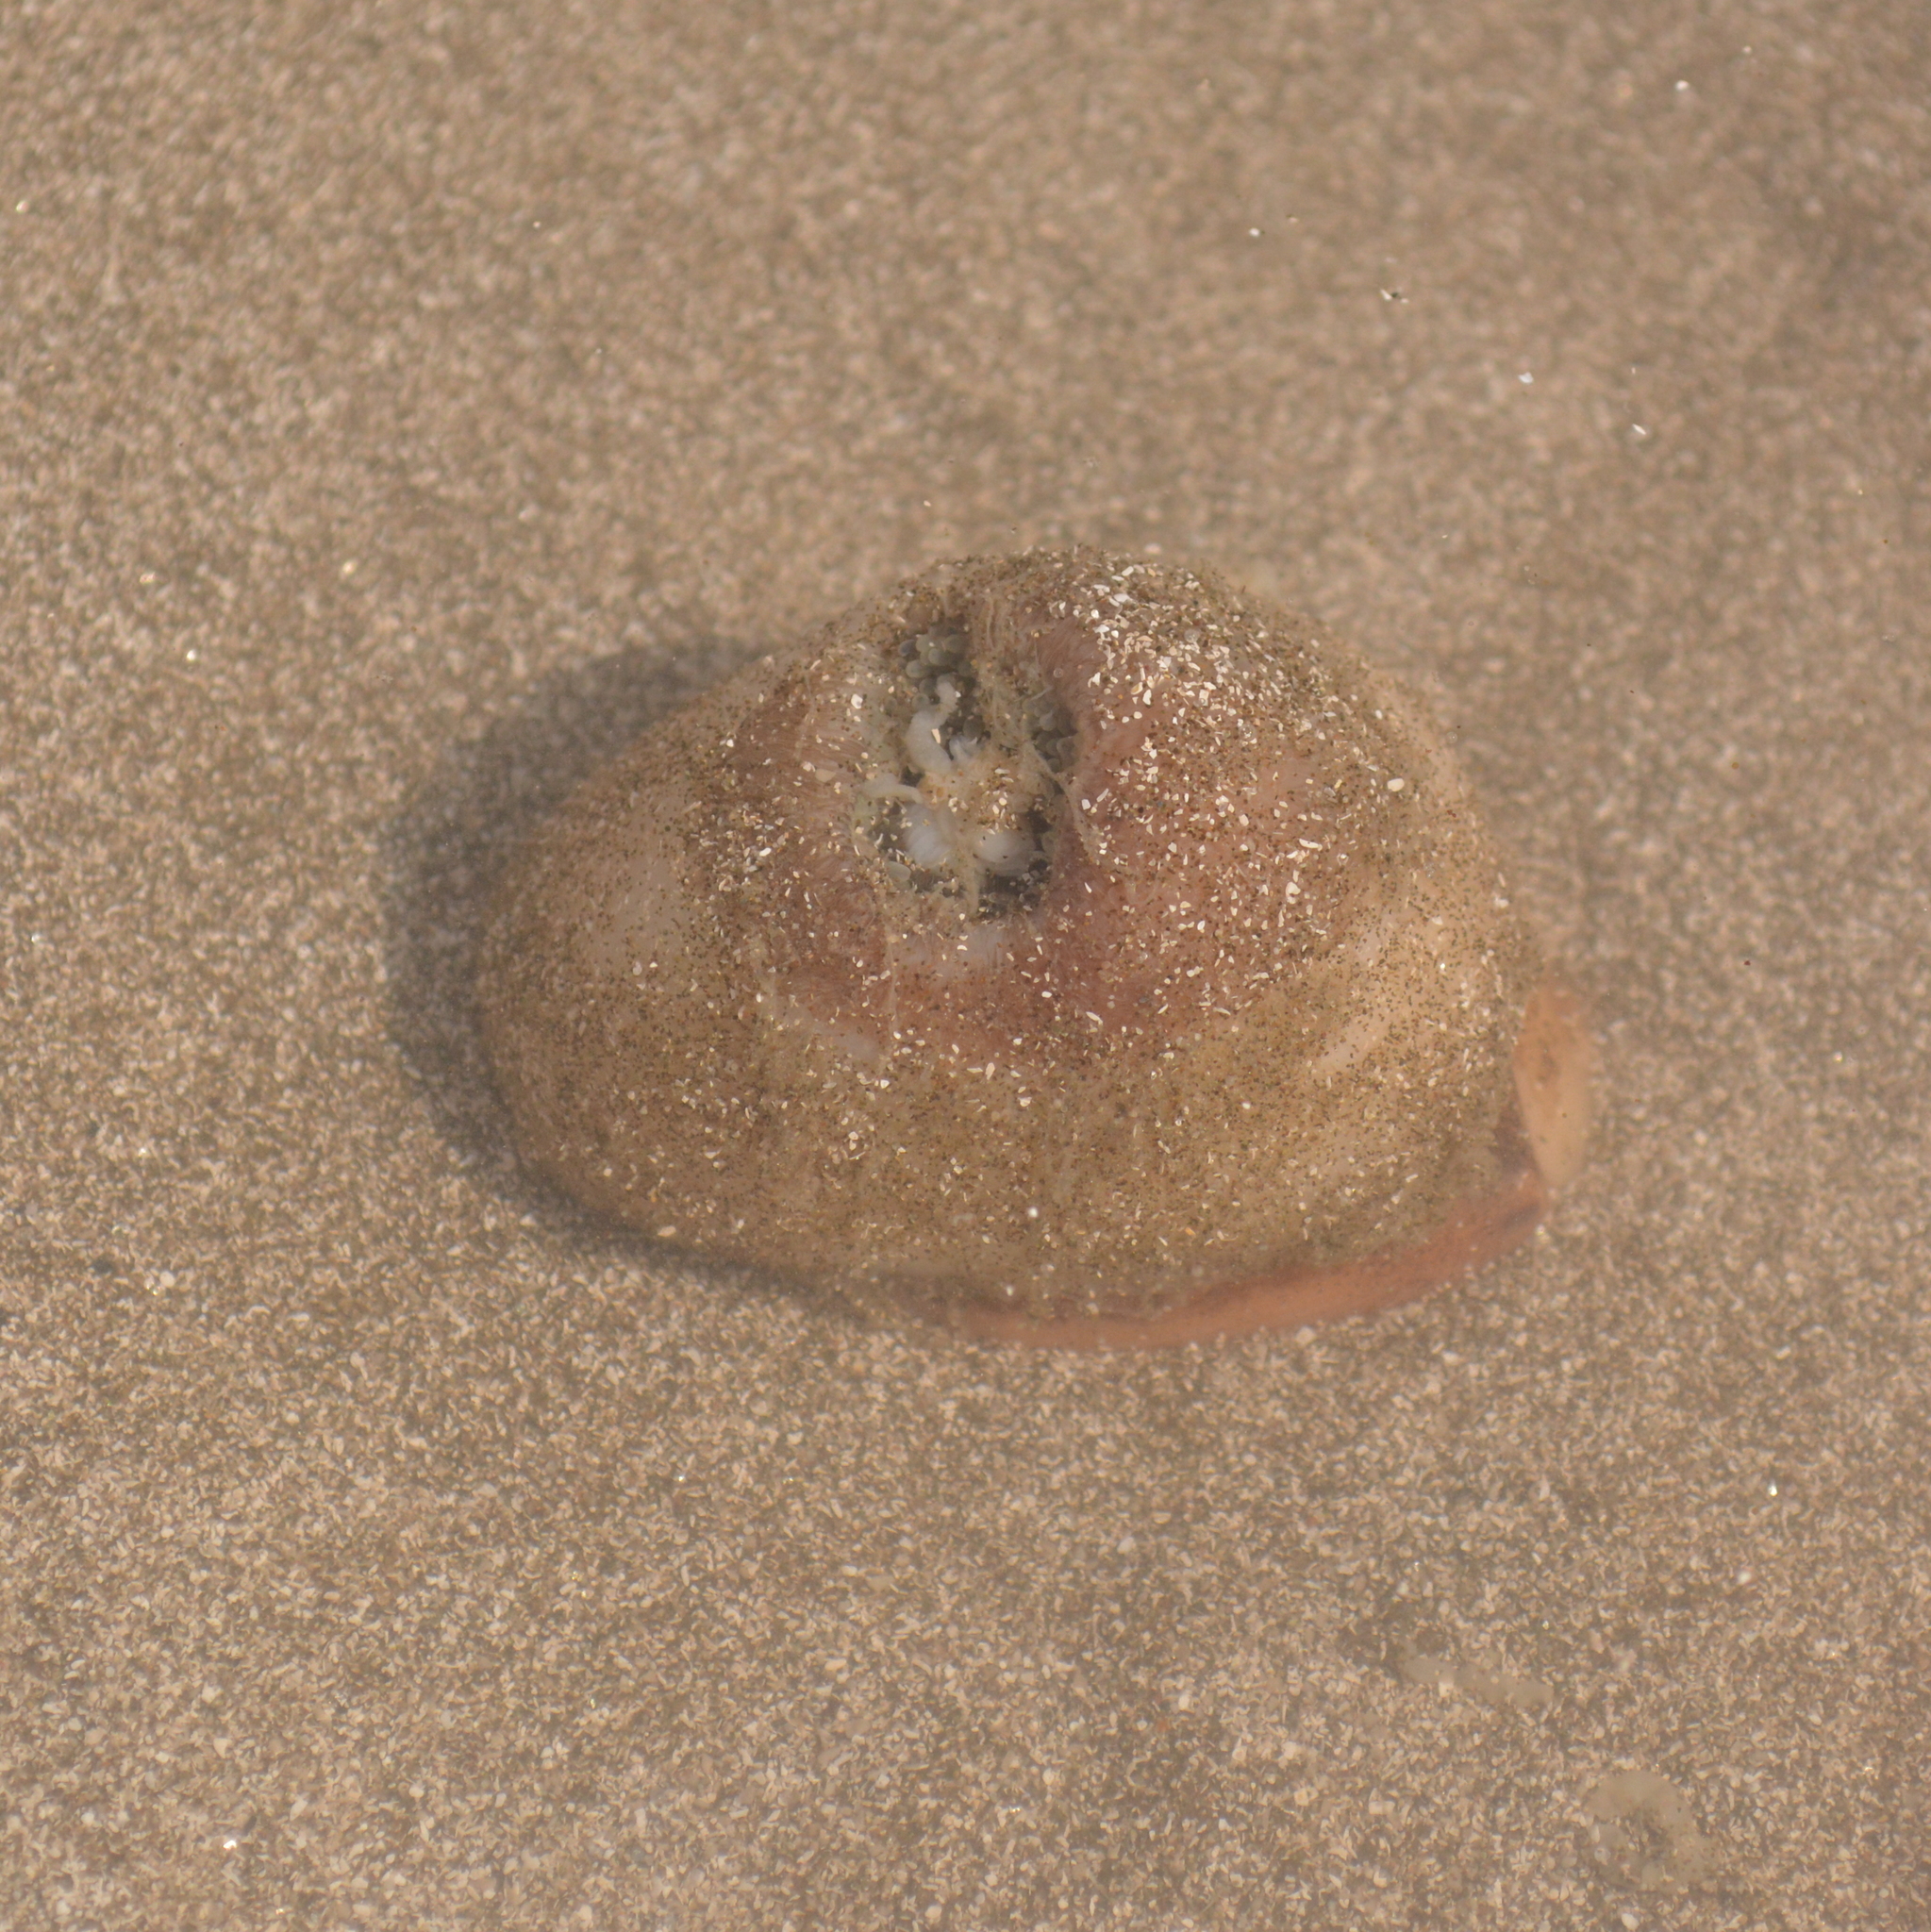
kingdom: Animalia
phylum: Cnidaria
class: Anthozoa
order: Actiniaria
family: Hormathiidae
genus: Calliactis
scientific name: Calliactis tricolor
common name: Hermit anemone
